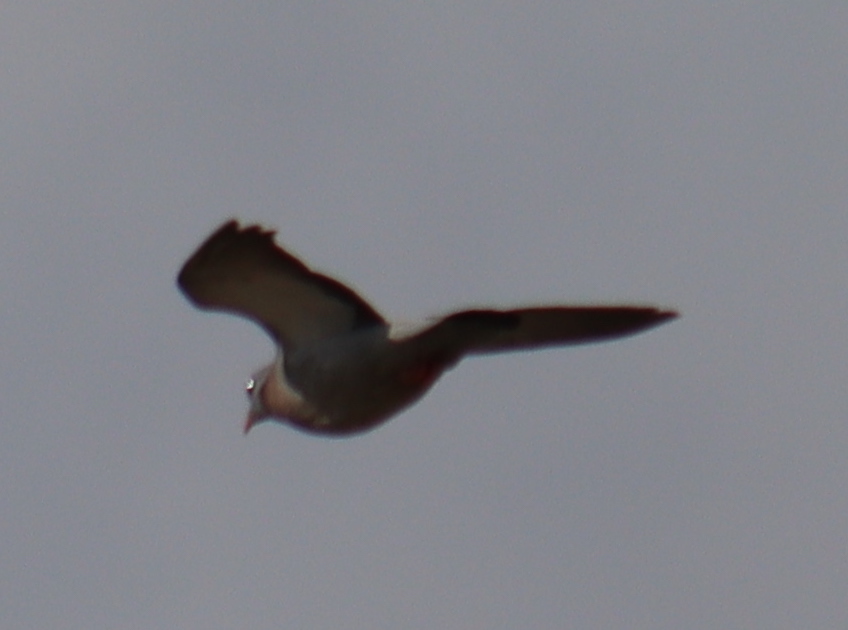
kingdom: Animalia
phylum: Chordata
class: Aves
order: Columbiformes
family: Columbidae
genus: Columba
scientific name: Columba oenas
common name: Stock dove
